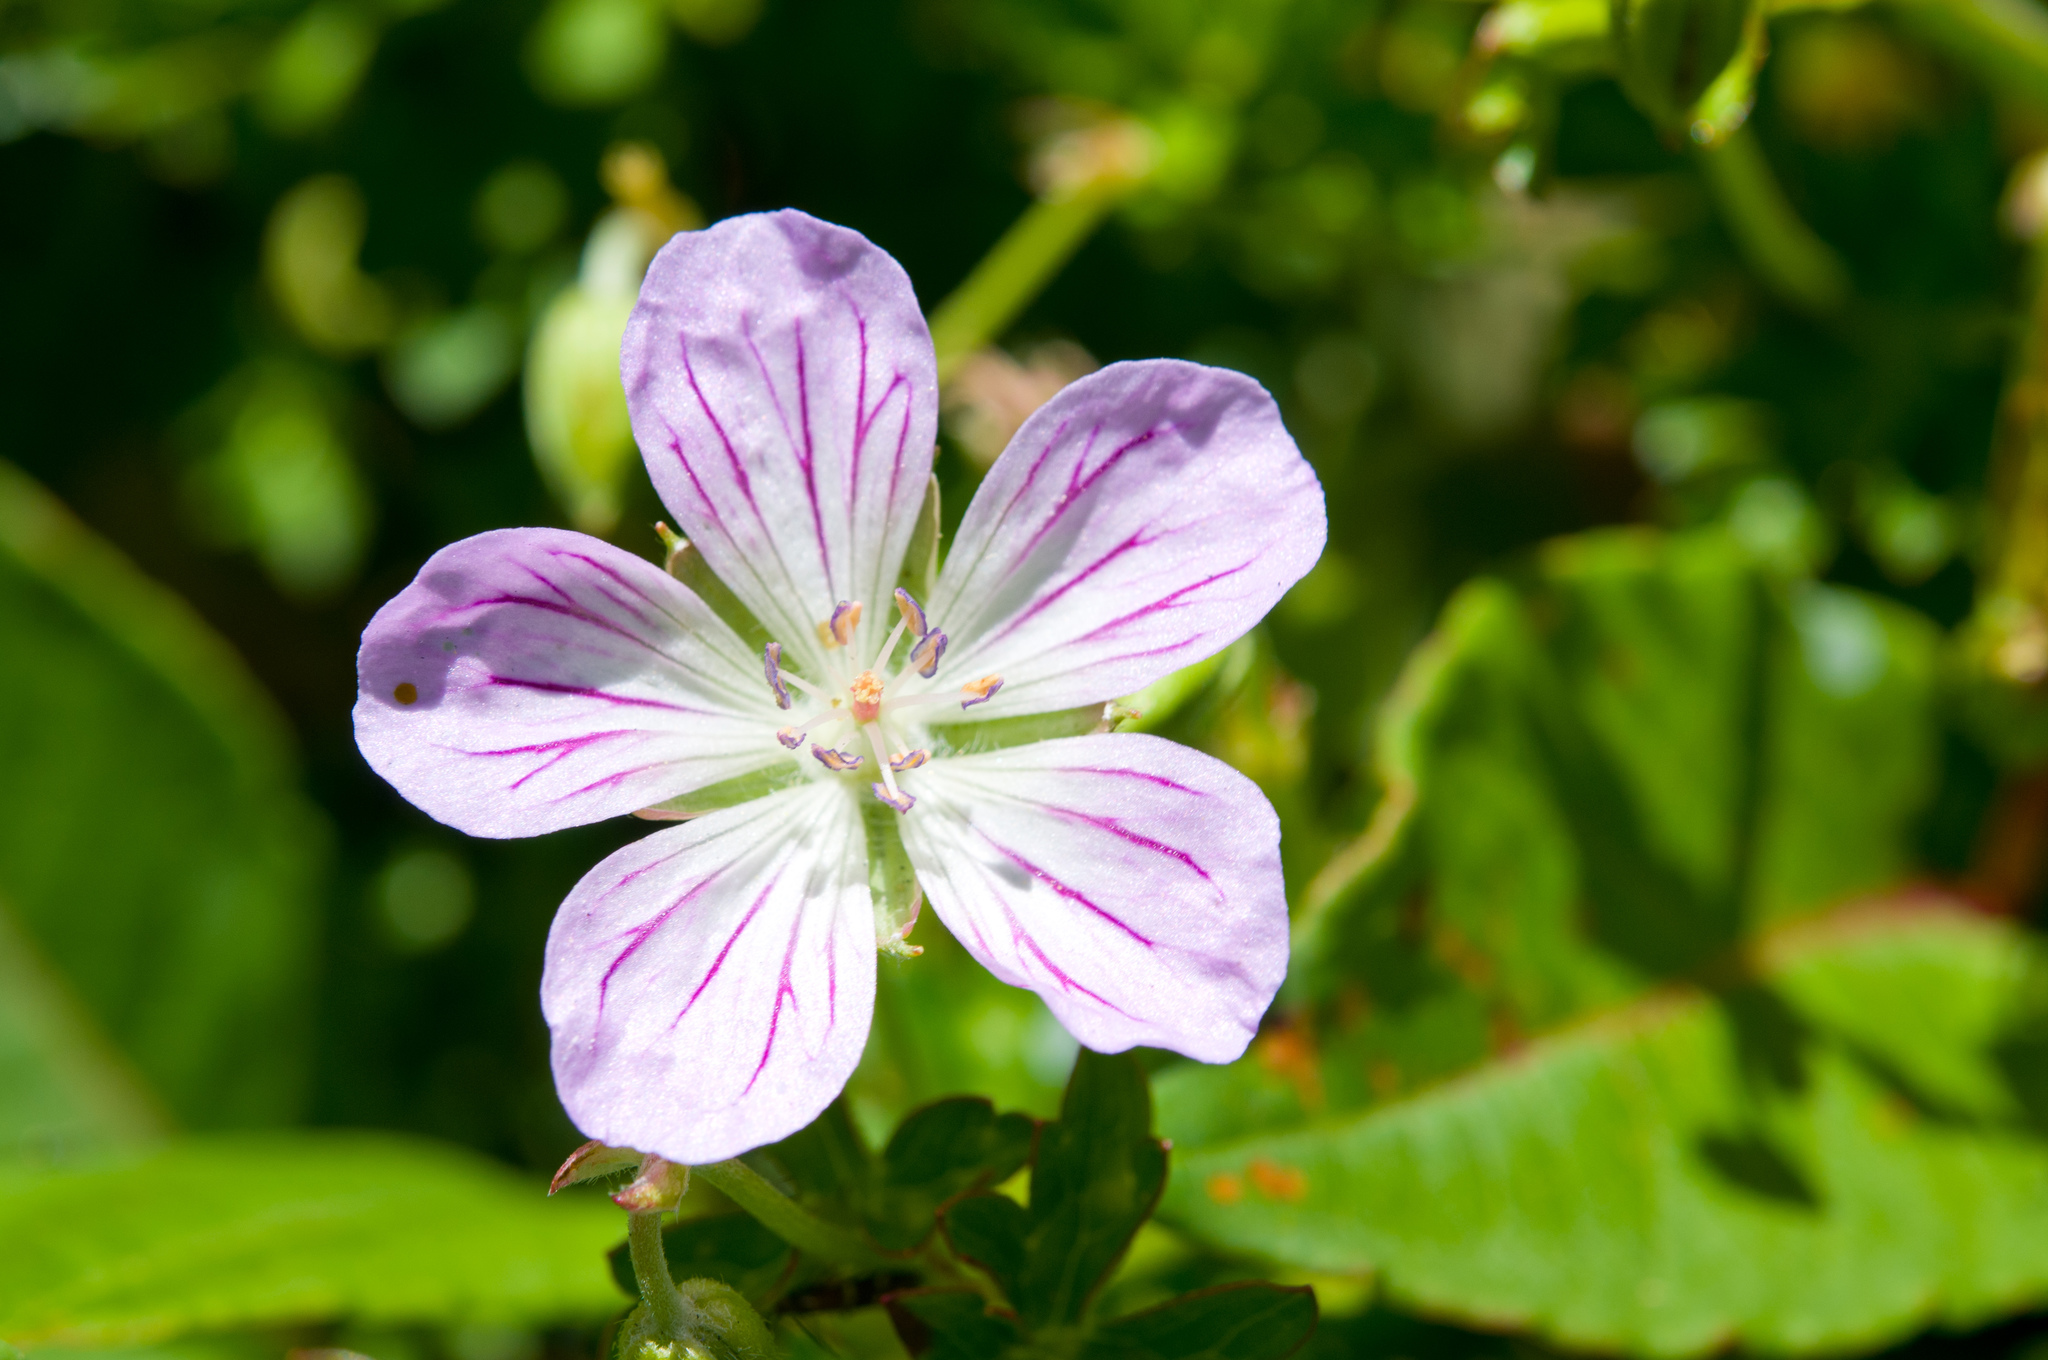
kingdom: Plantae
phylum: Tracheophyta
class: Magnoliopsida
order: Geraniales
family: Geraniaceae
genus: Geranium
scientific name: Geranium hayatanum
